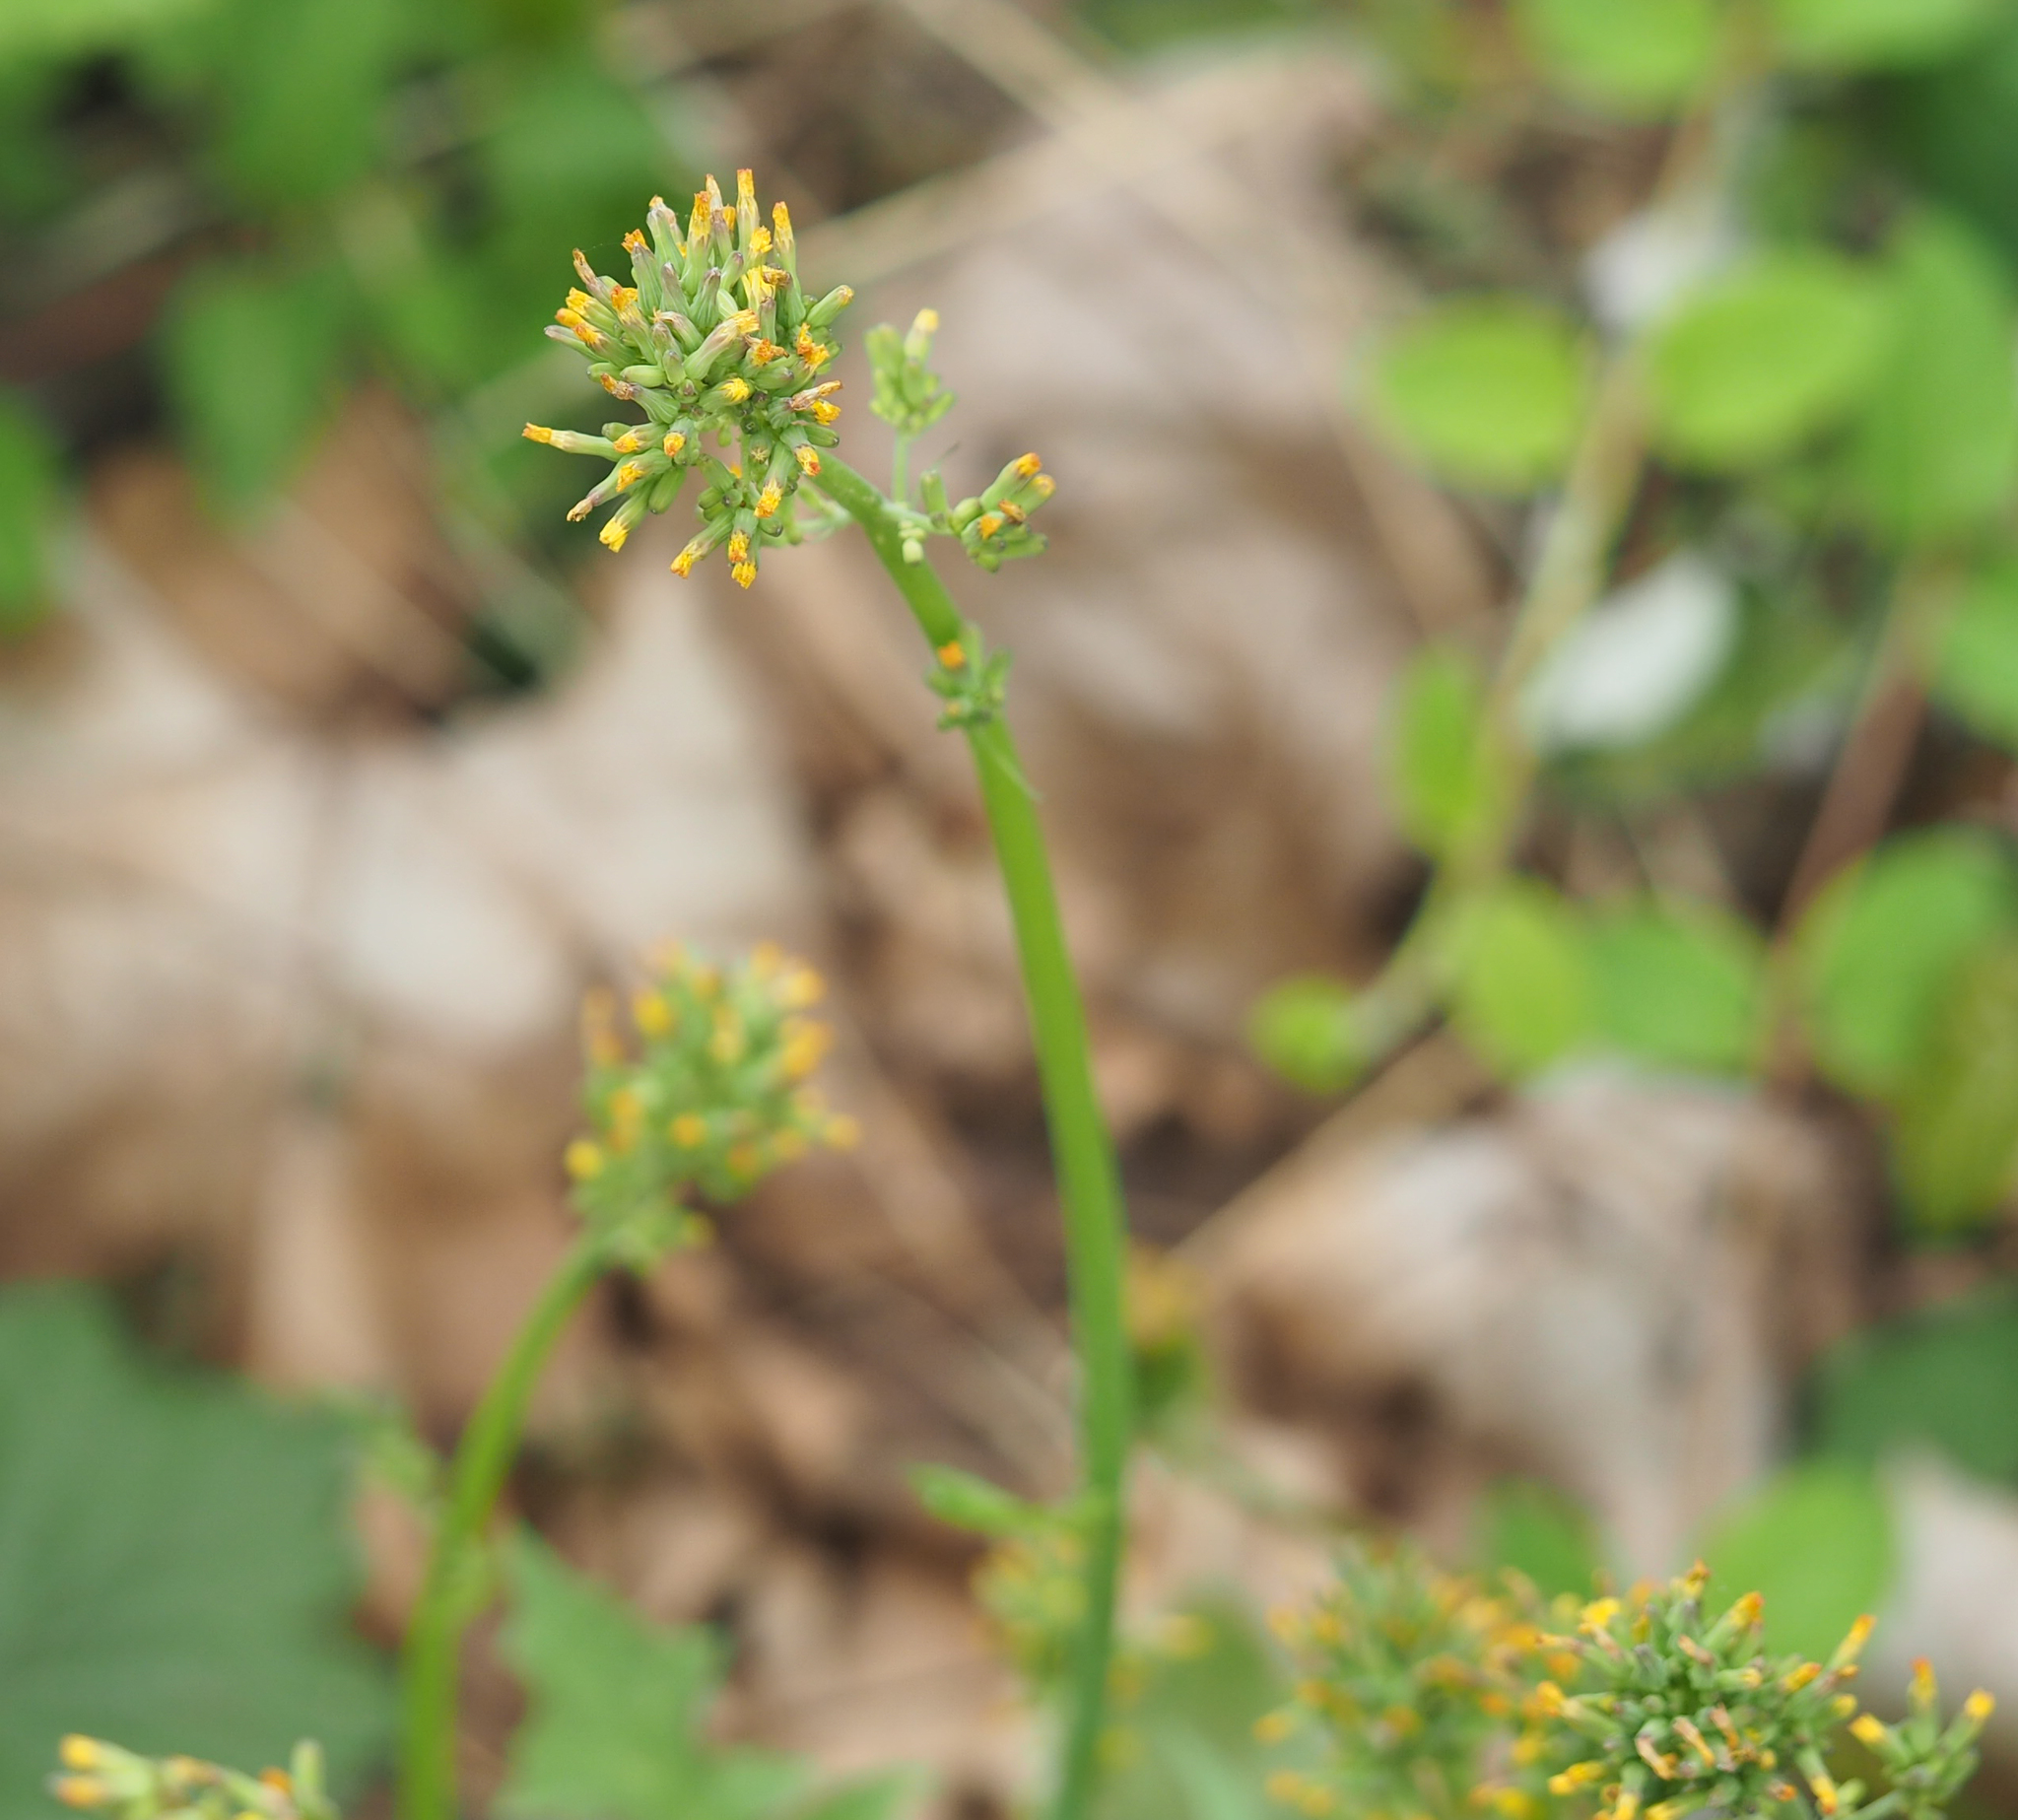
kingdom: Plantae
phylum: Tracheophyta
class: Magnoliopsida
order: Asterales
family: Asteraceae
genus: Youngia
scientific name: Youngia japonica
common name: Oriental false hawksbeard
